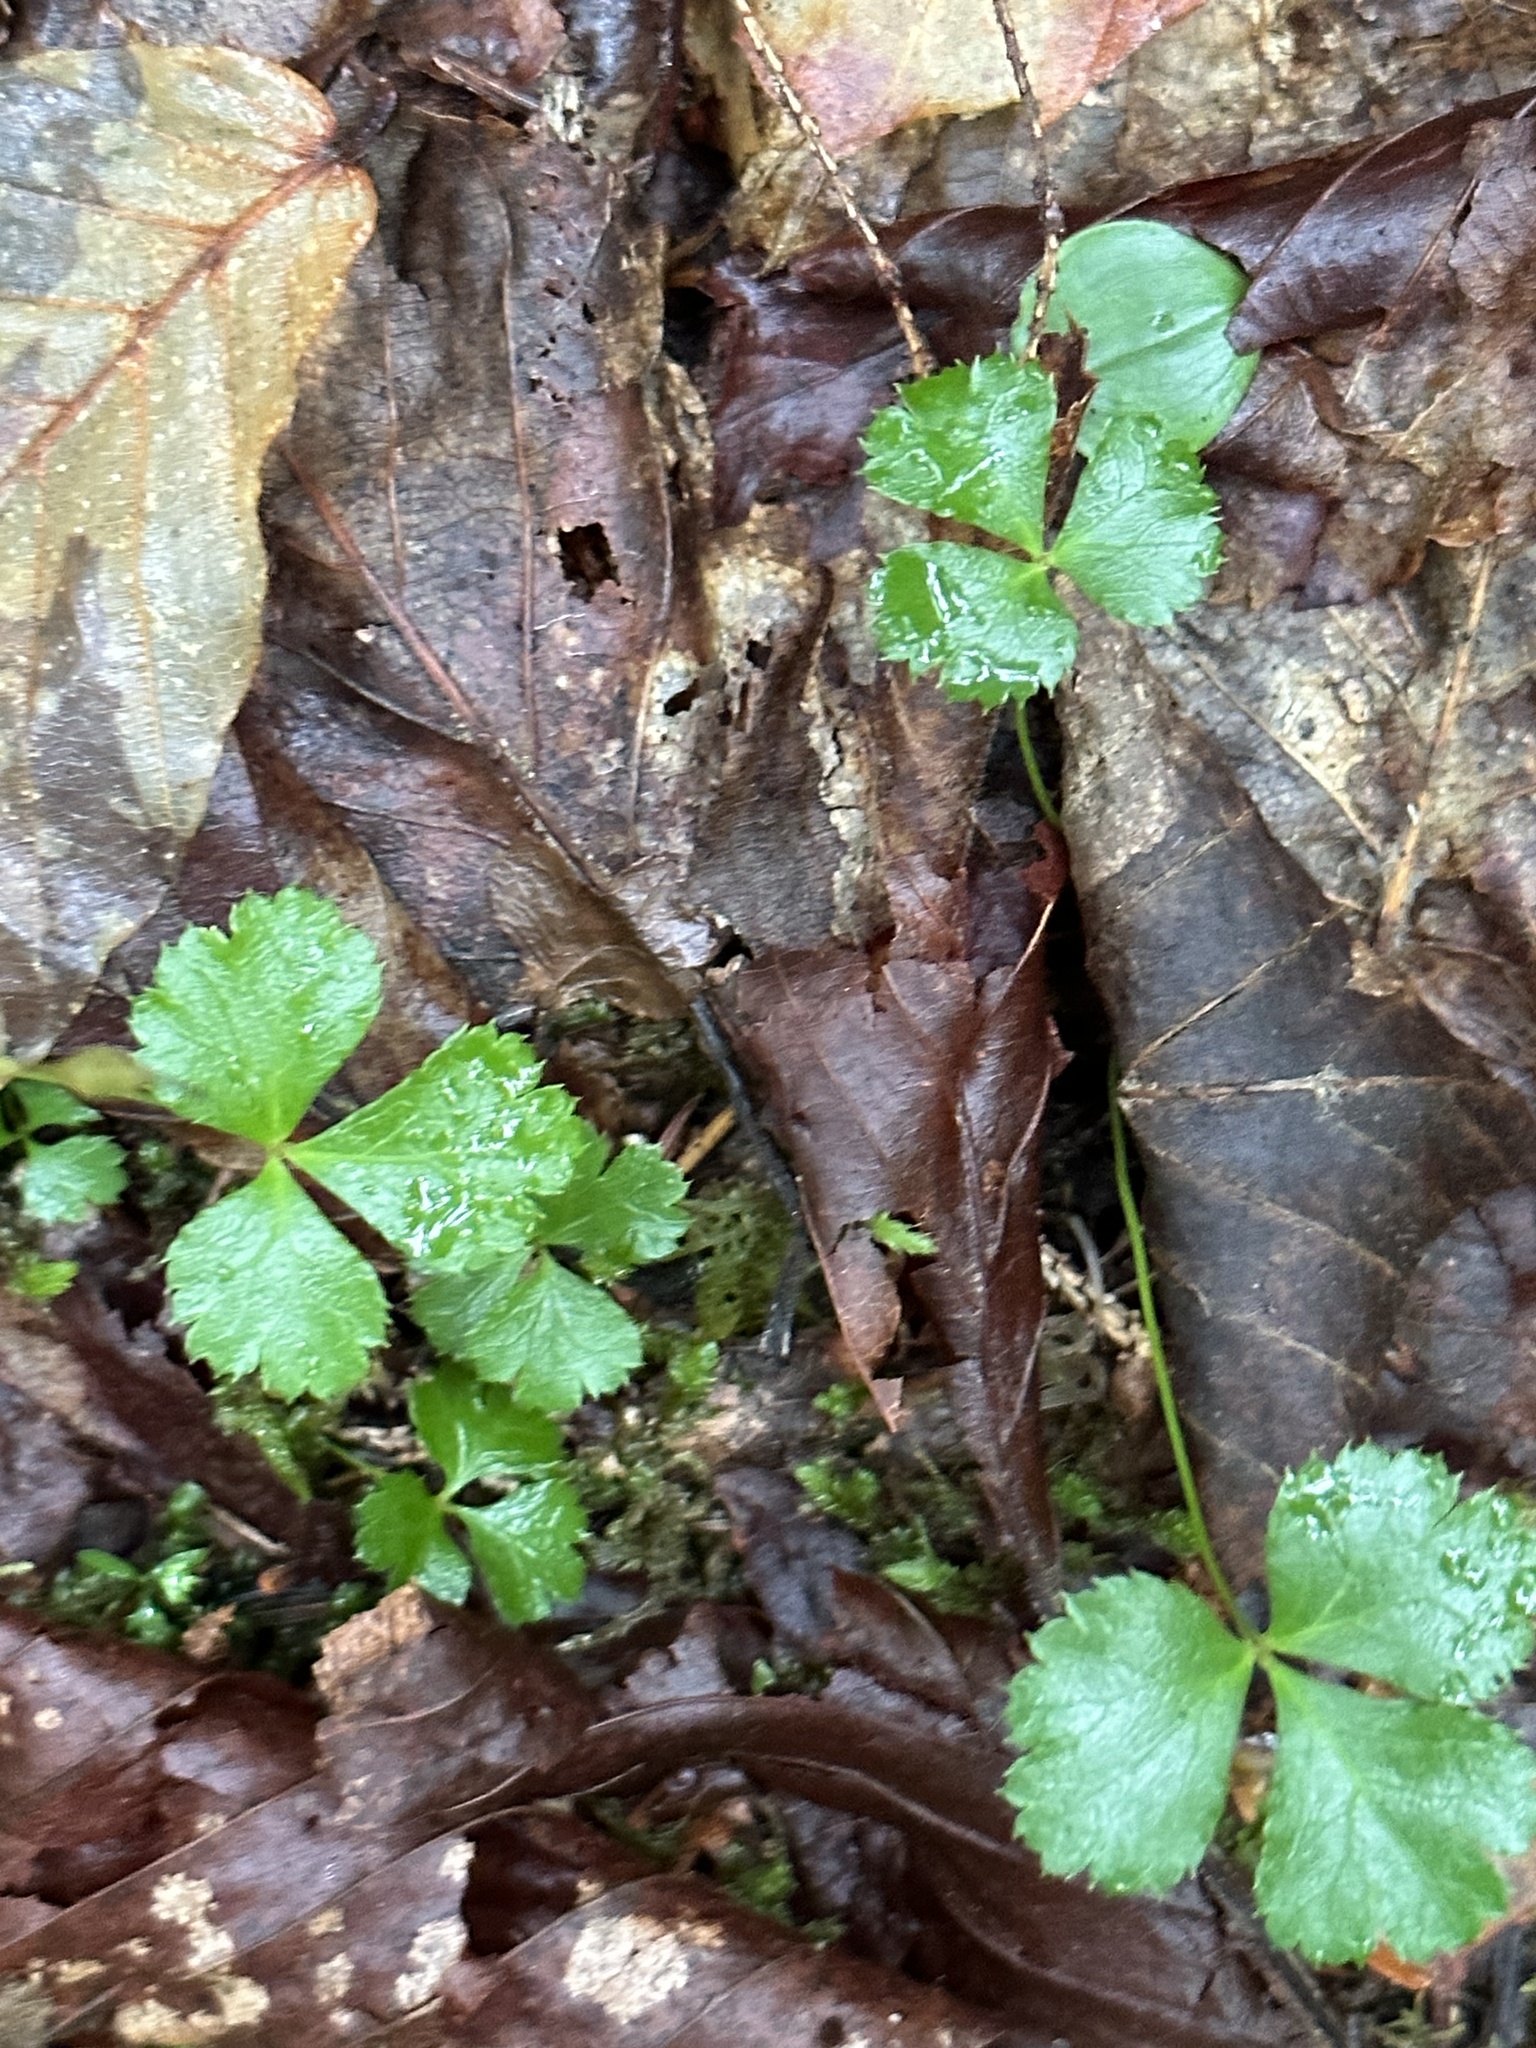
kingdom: Plantae
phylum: Tracheophyta
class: Magnoliopsida
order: Ranunculales
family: Ranunculaceae
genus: Coptis
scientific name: Coptis trifolia
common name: Canker-root
